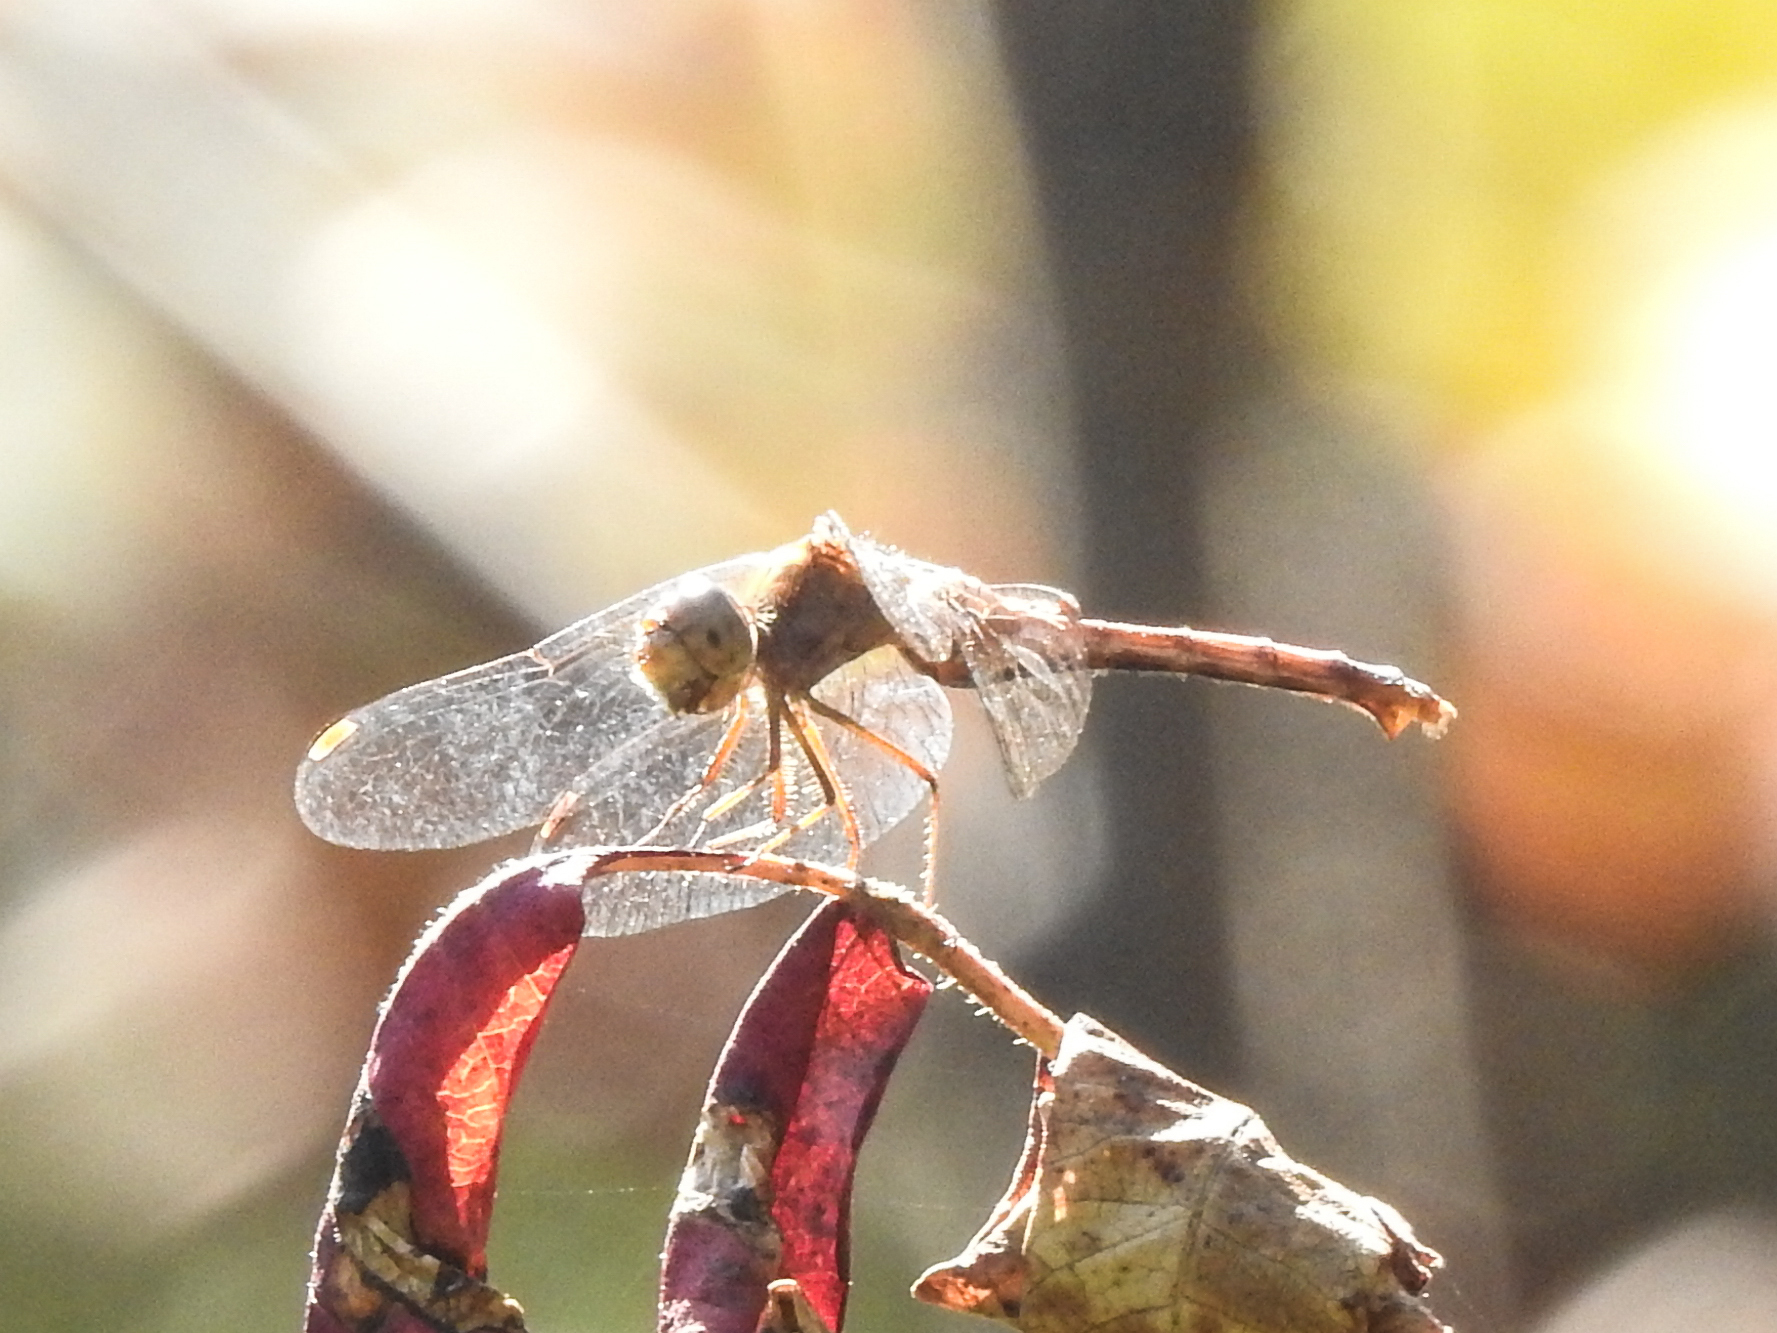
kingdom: Animalia
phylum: Arthropoda
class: Insecta
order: Odonata
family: Libellulidae
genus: Sympetrum
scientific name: Sympetrum vicinum
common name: Autumn meadowhawk
